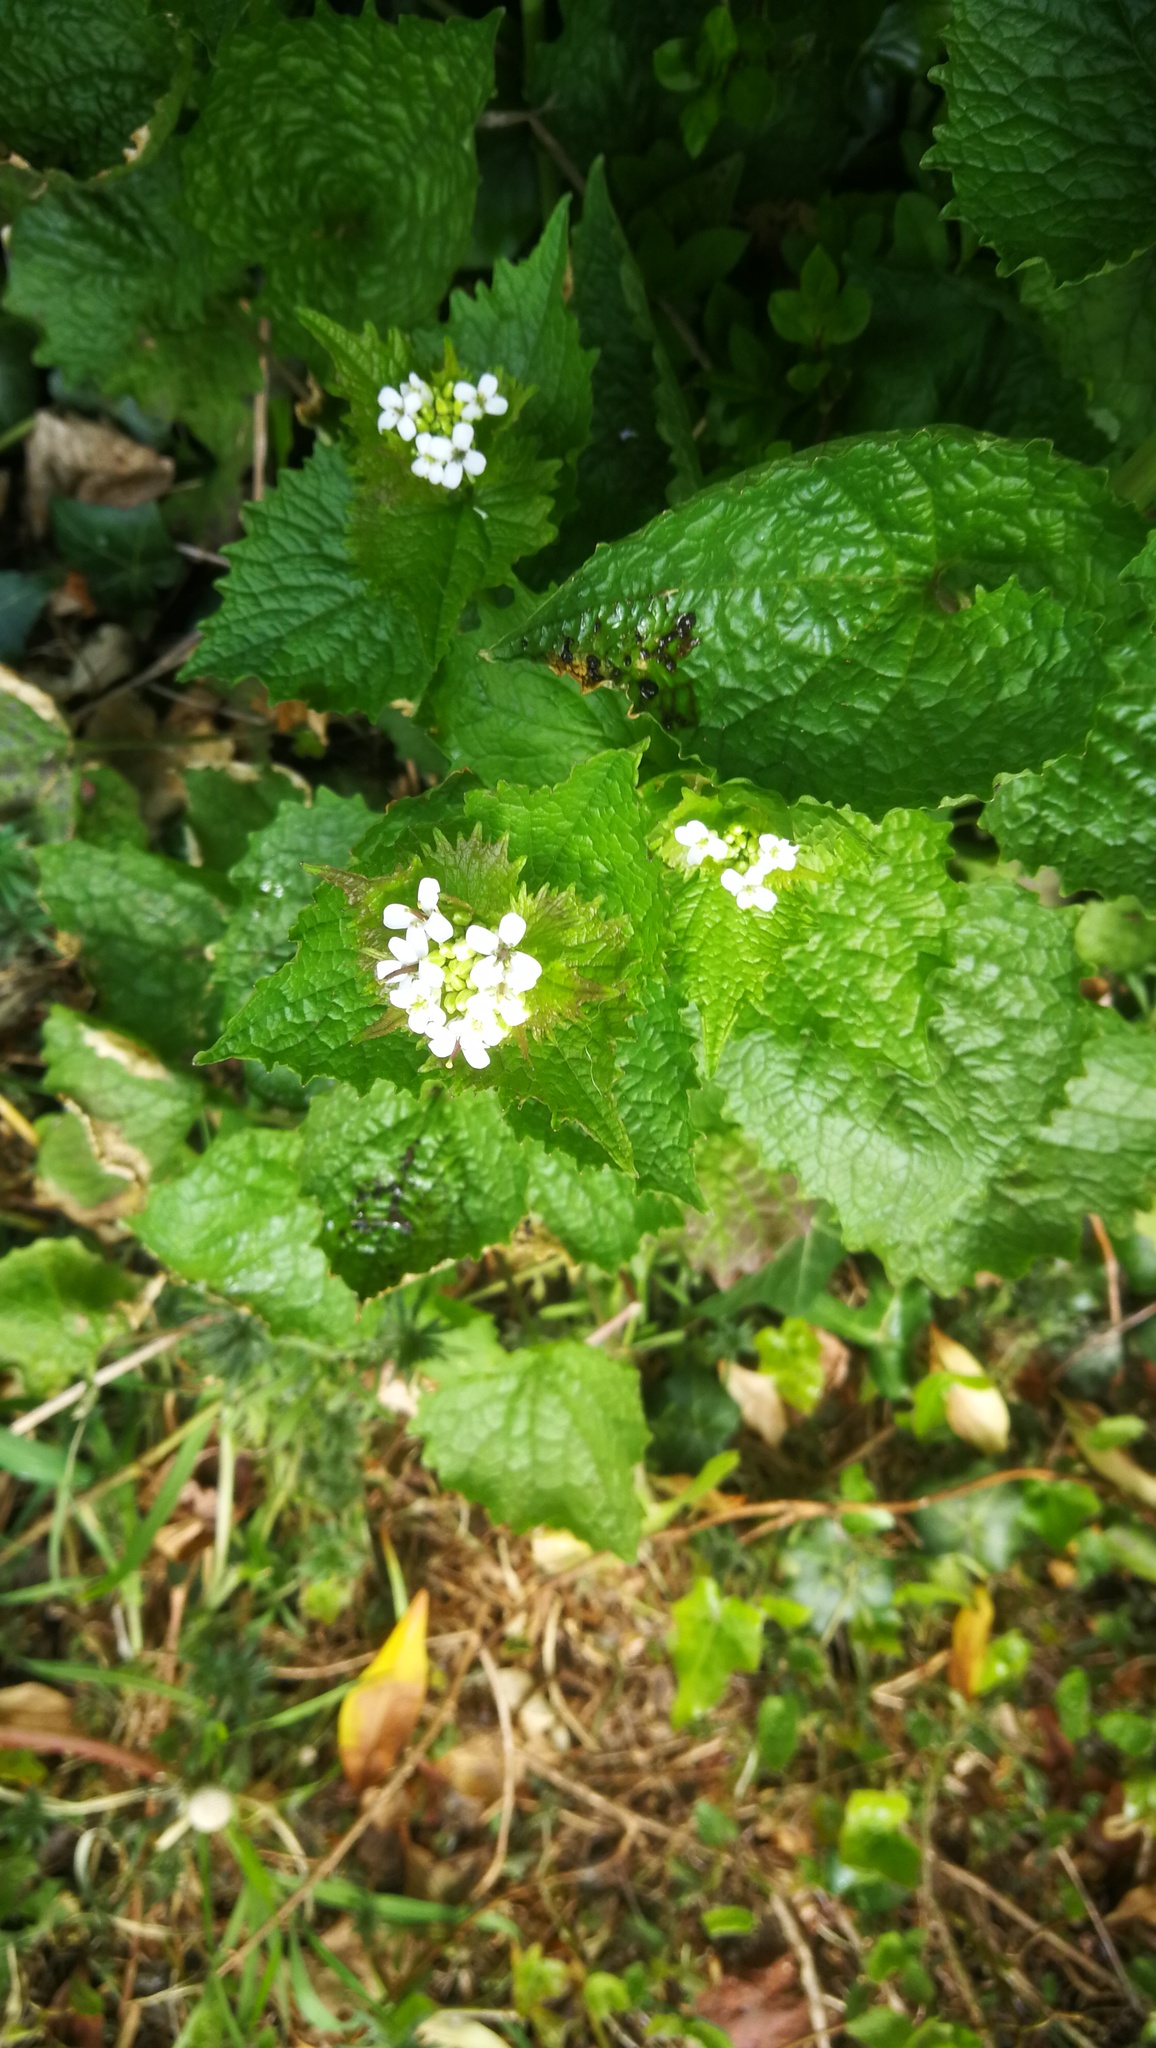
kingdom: Plantae
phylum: Tracheophyta
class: Magnoliopsida
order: Brassicales
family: Brassicaceae
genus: Alliaria
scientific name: Alliaria petiolata
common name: Garlic mustard
